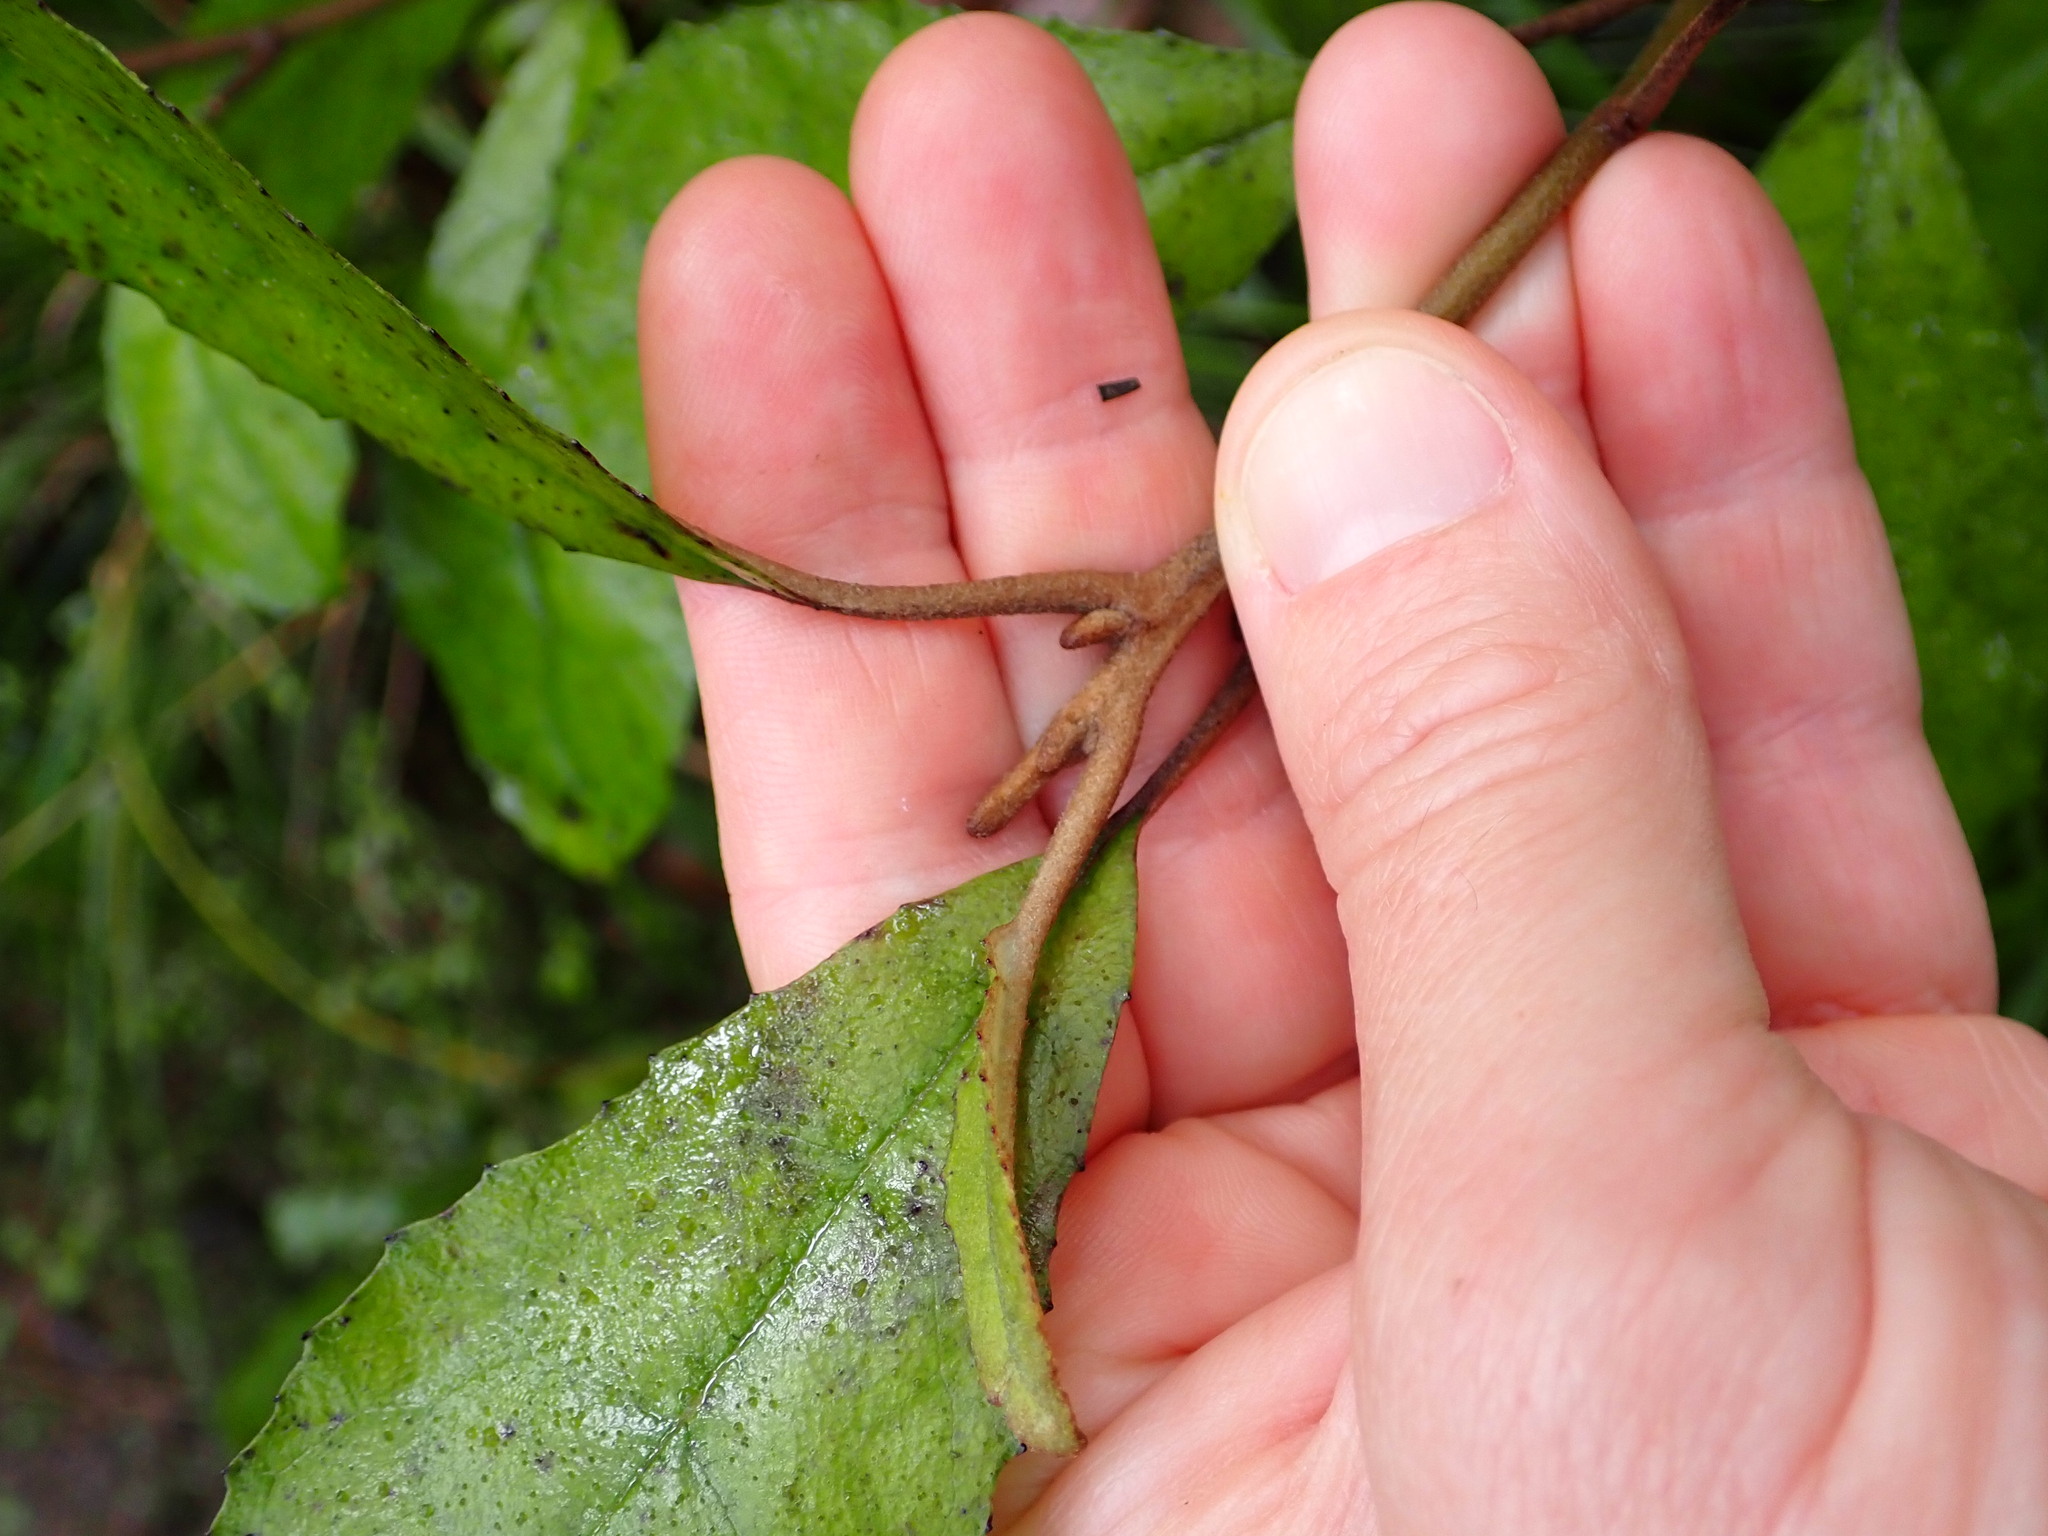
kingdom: Plantae
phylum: Tracheophyta
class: Magnoliopsida
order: Asterales
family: Asteraceae
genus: Olearia
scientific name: Olearia rani
